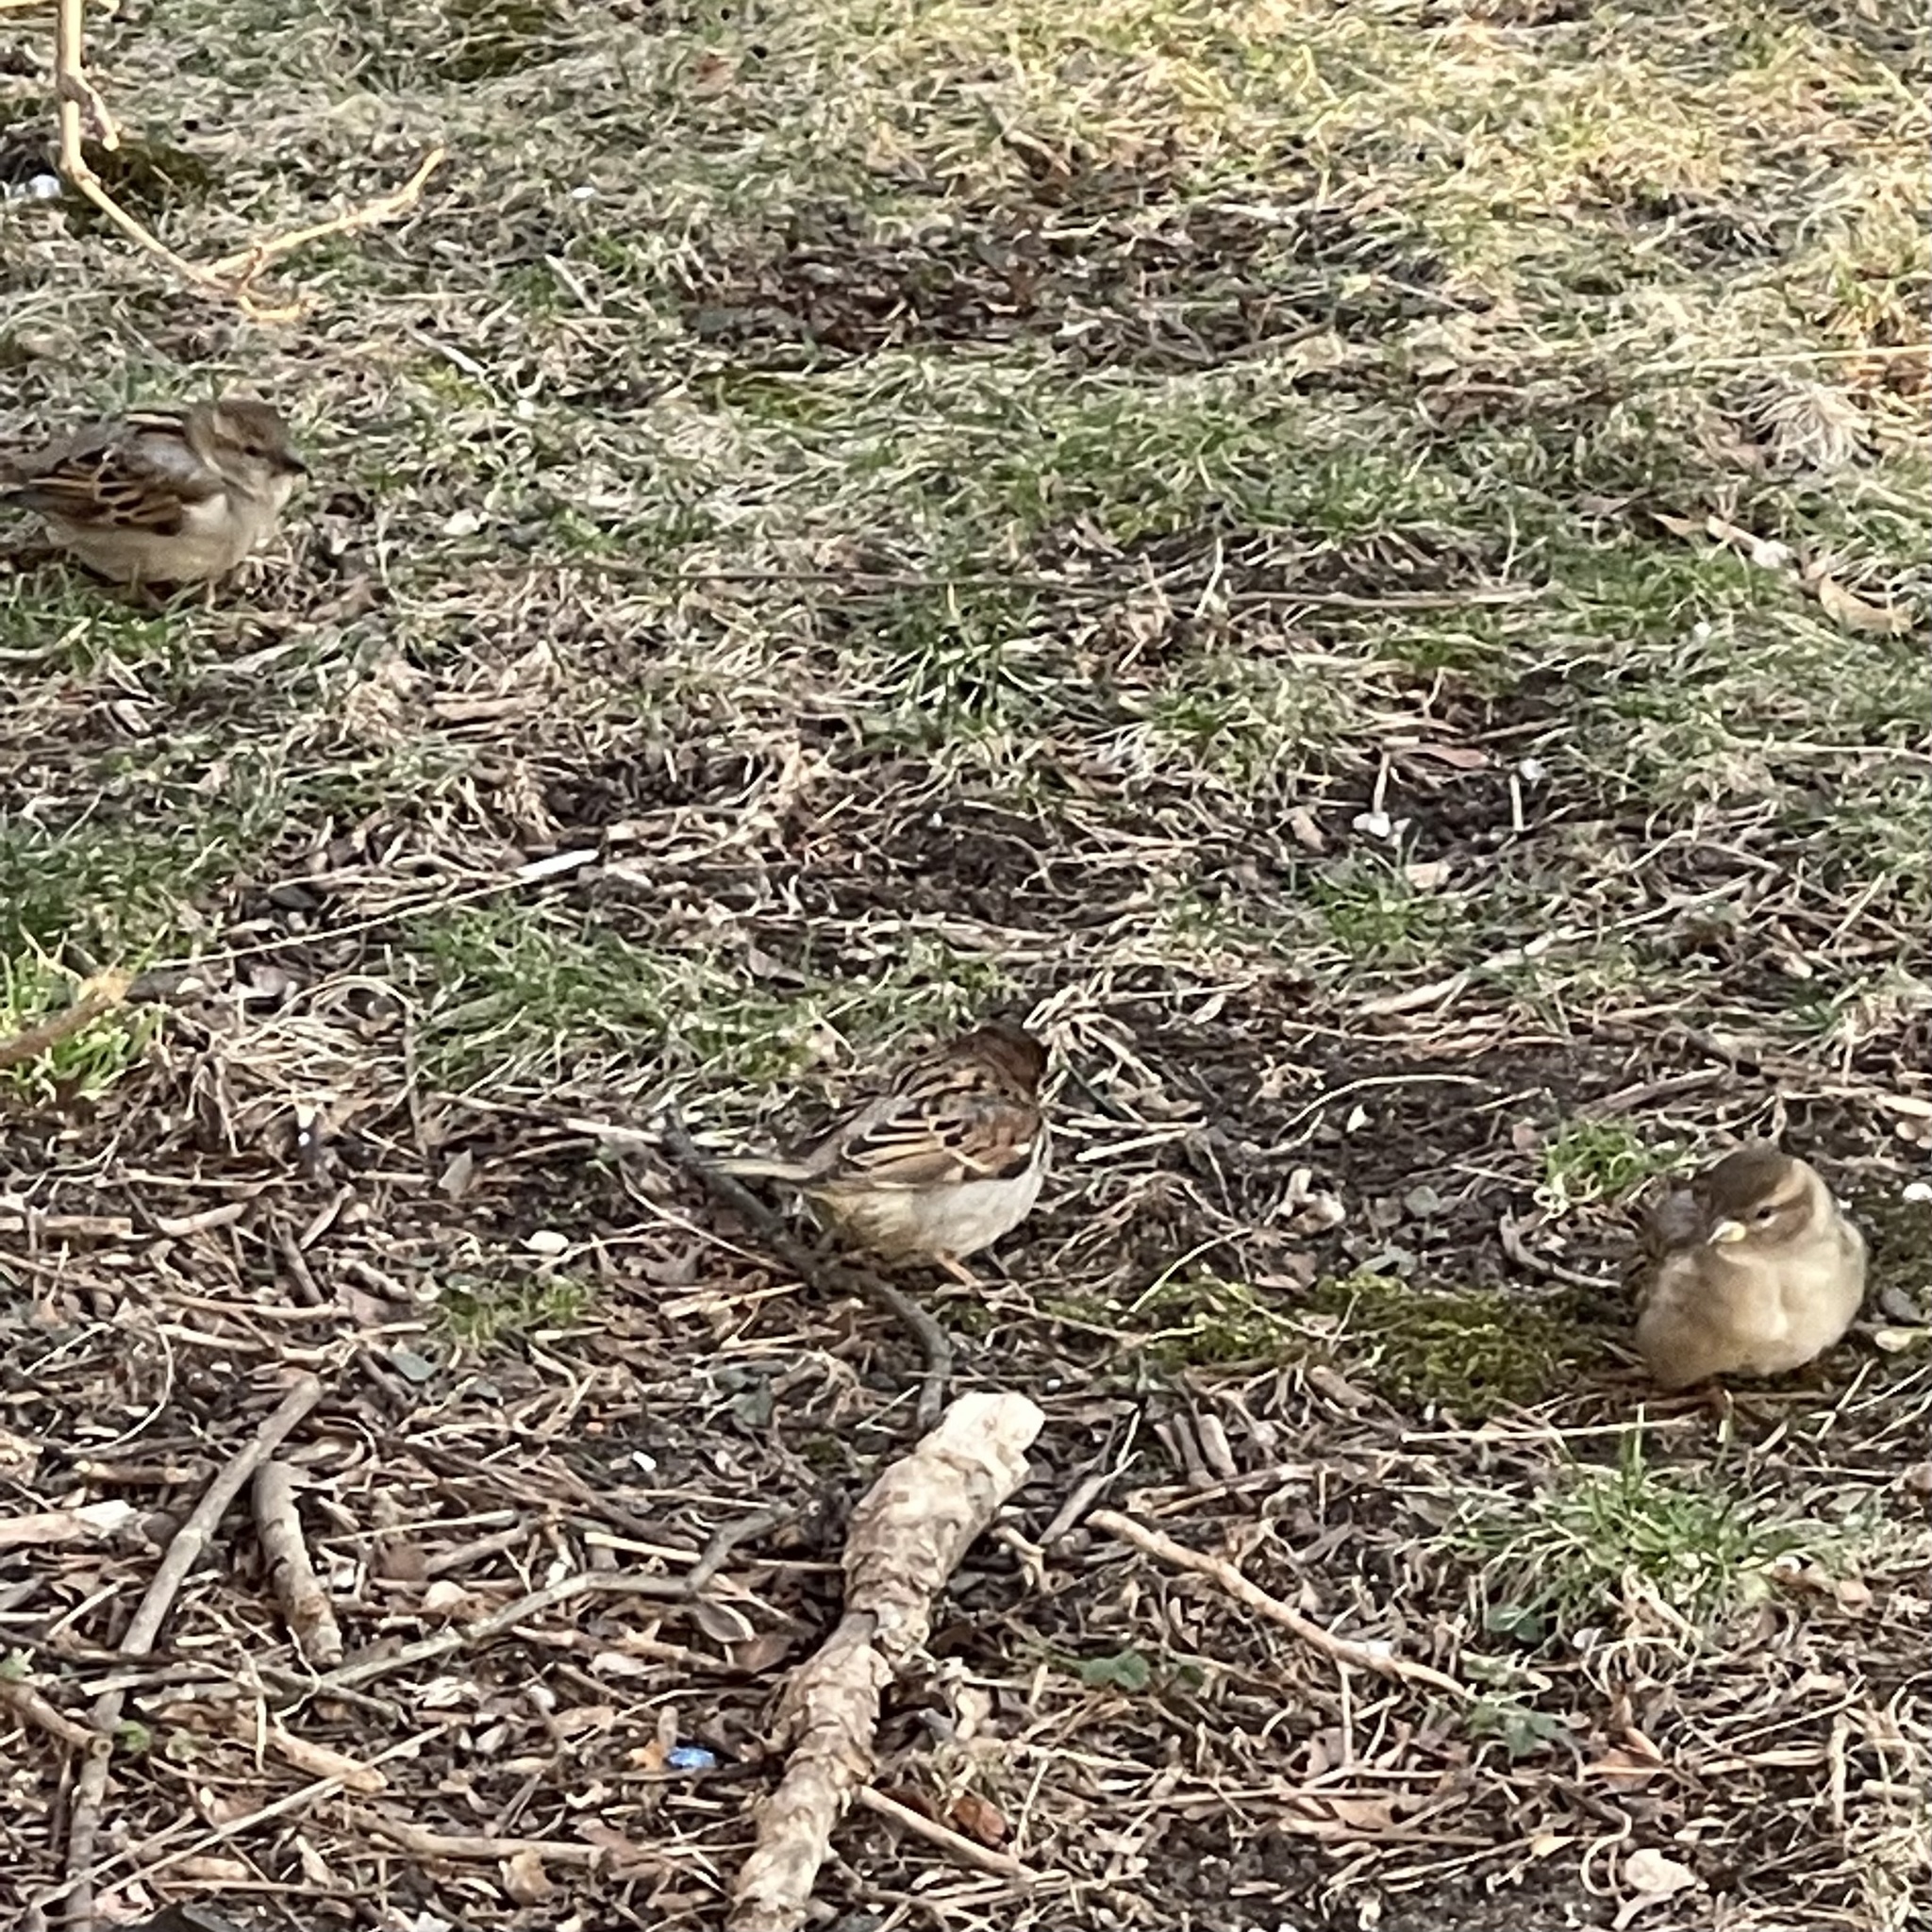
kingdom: Animalia
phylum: Chordata
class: Aves
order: Passeriformes
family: Passeridae
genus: Passer
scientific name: Passer domesticus
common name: House sparrow
